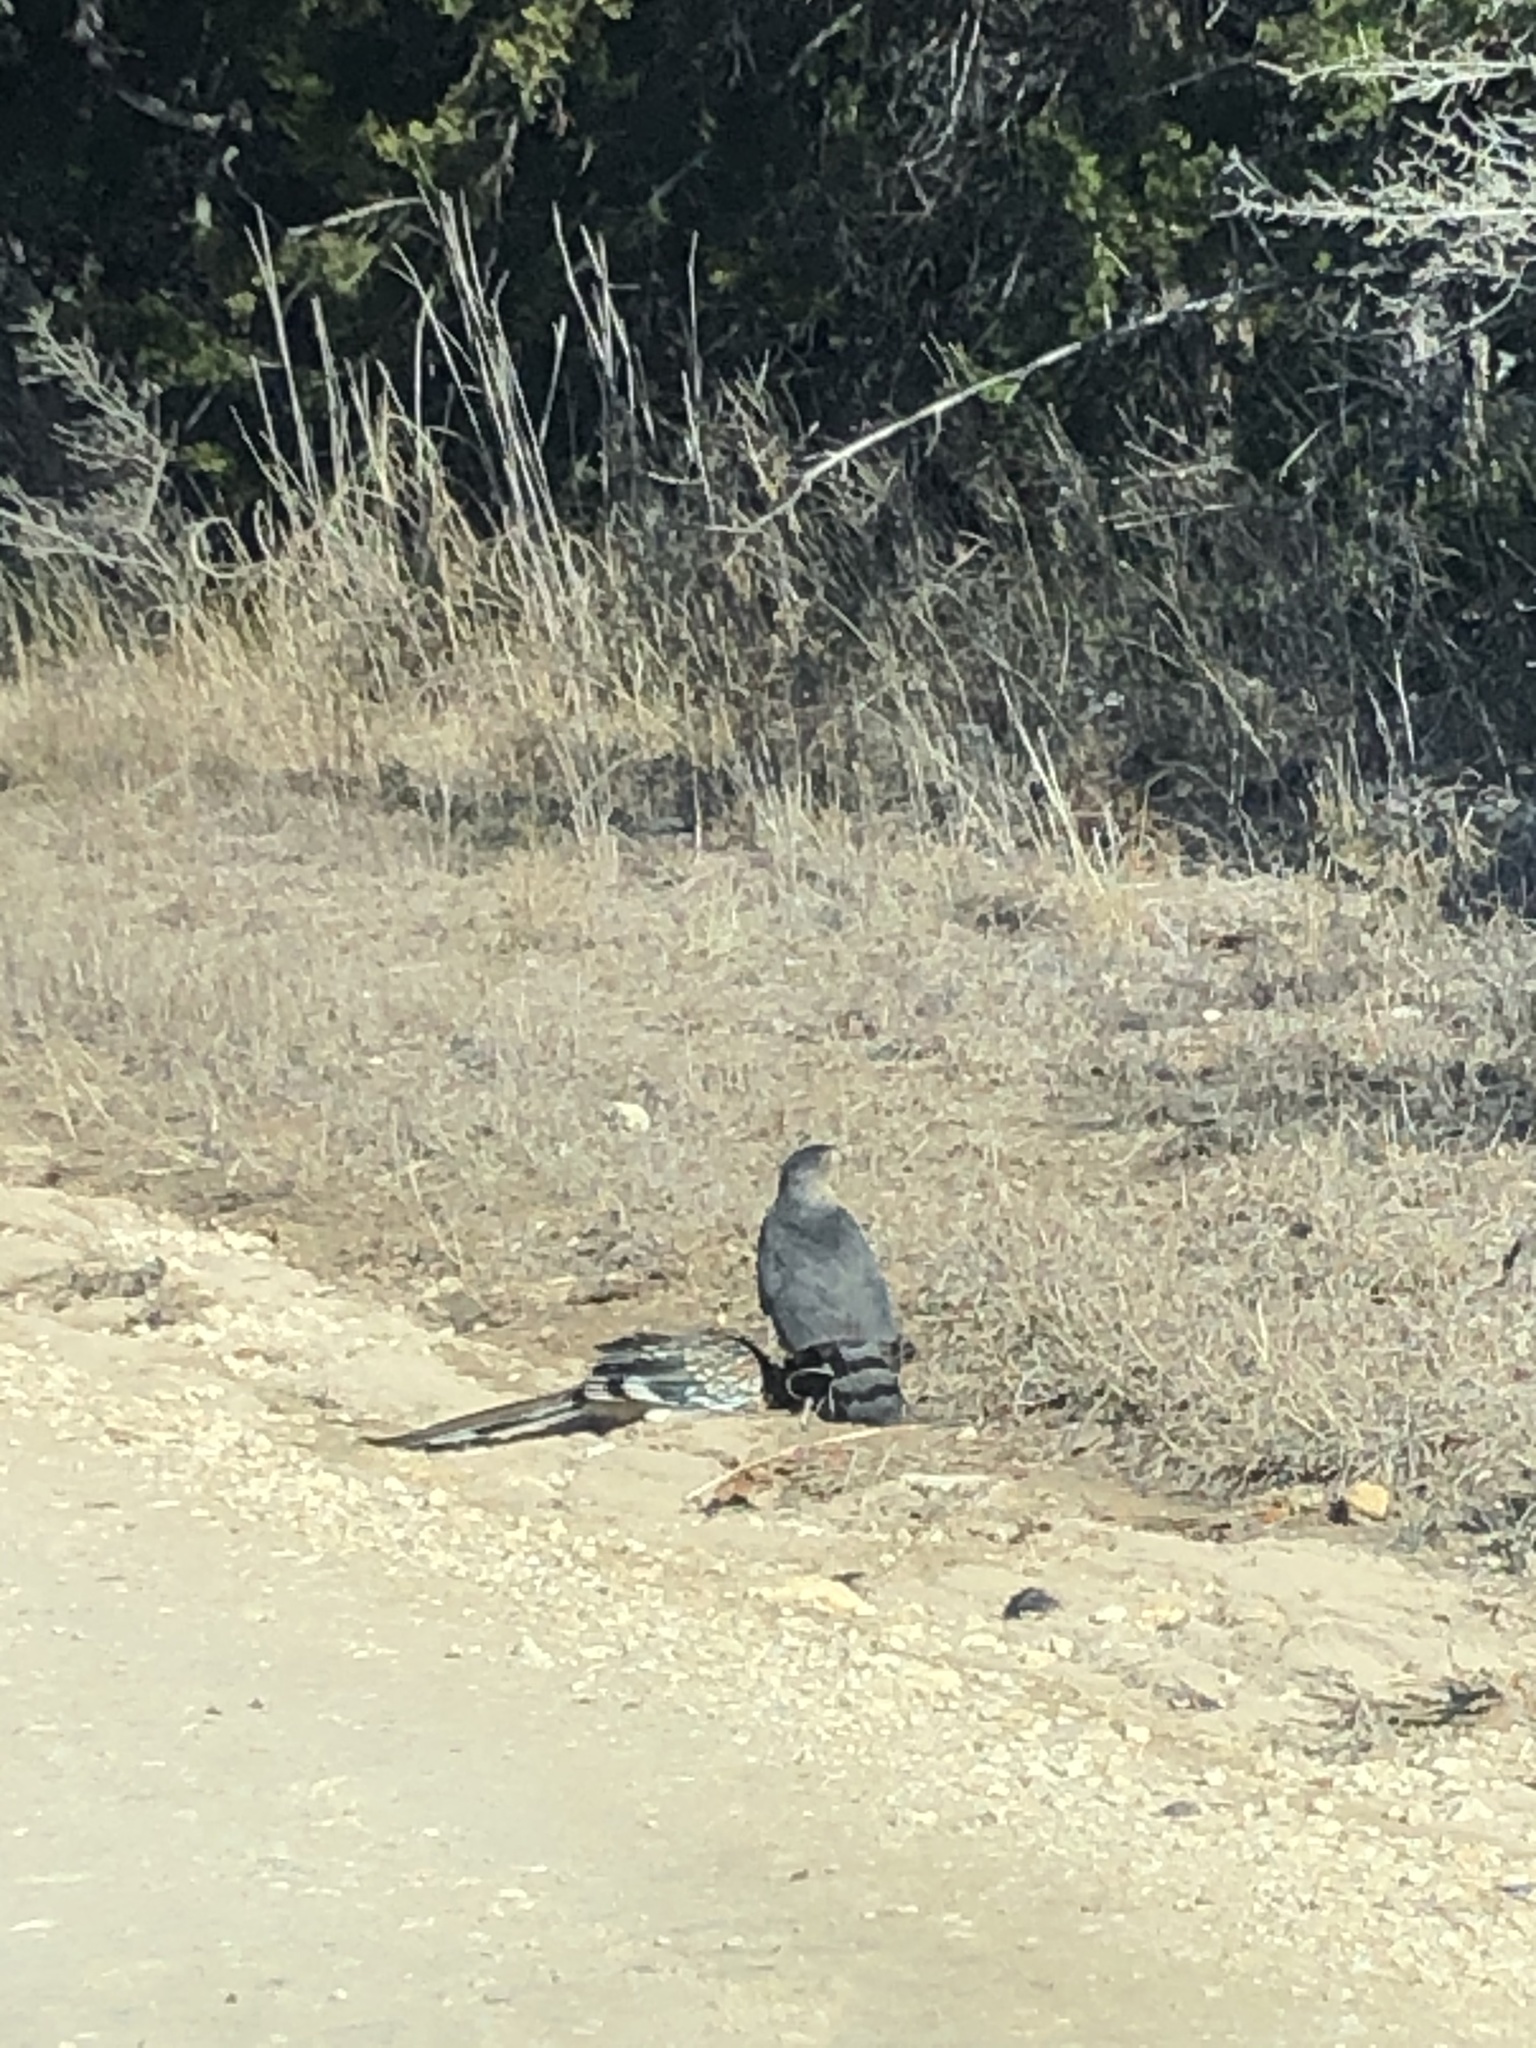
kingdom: Animalia
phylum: Chordata
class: Aves
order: Accipitriformes
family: Accipitridae
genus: Accipiter
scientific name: Accipiter cooperii
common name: Cooper's hawk
